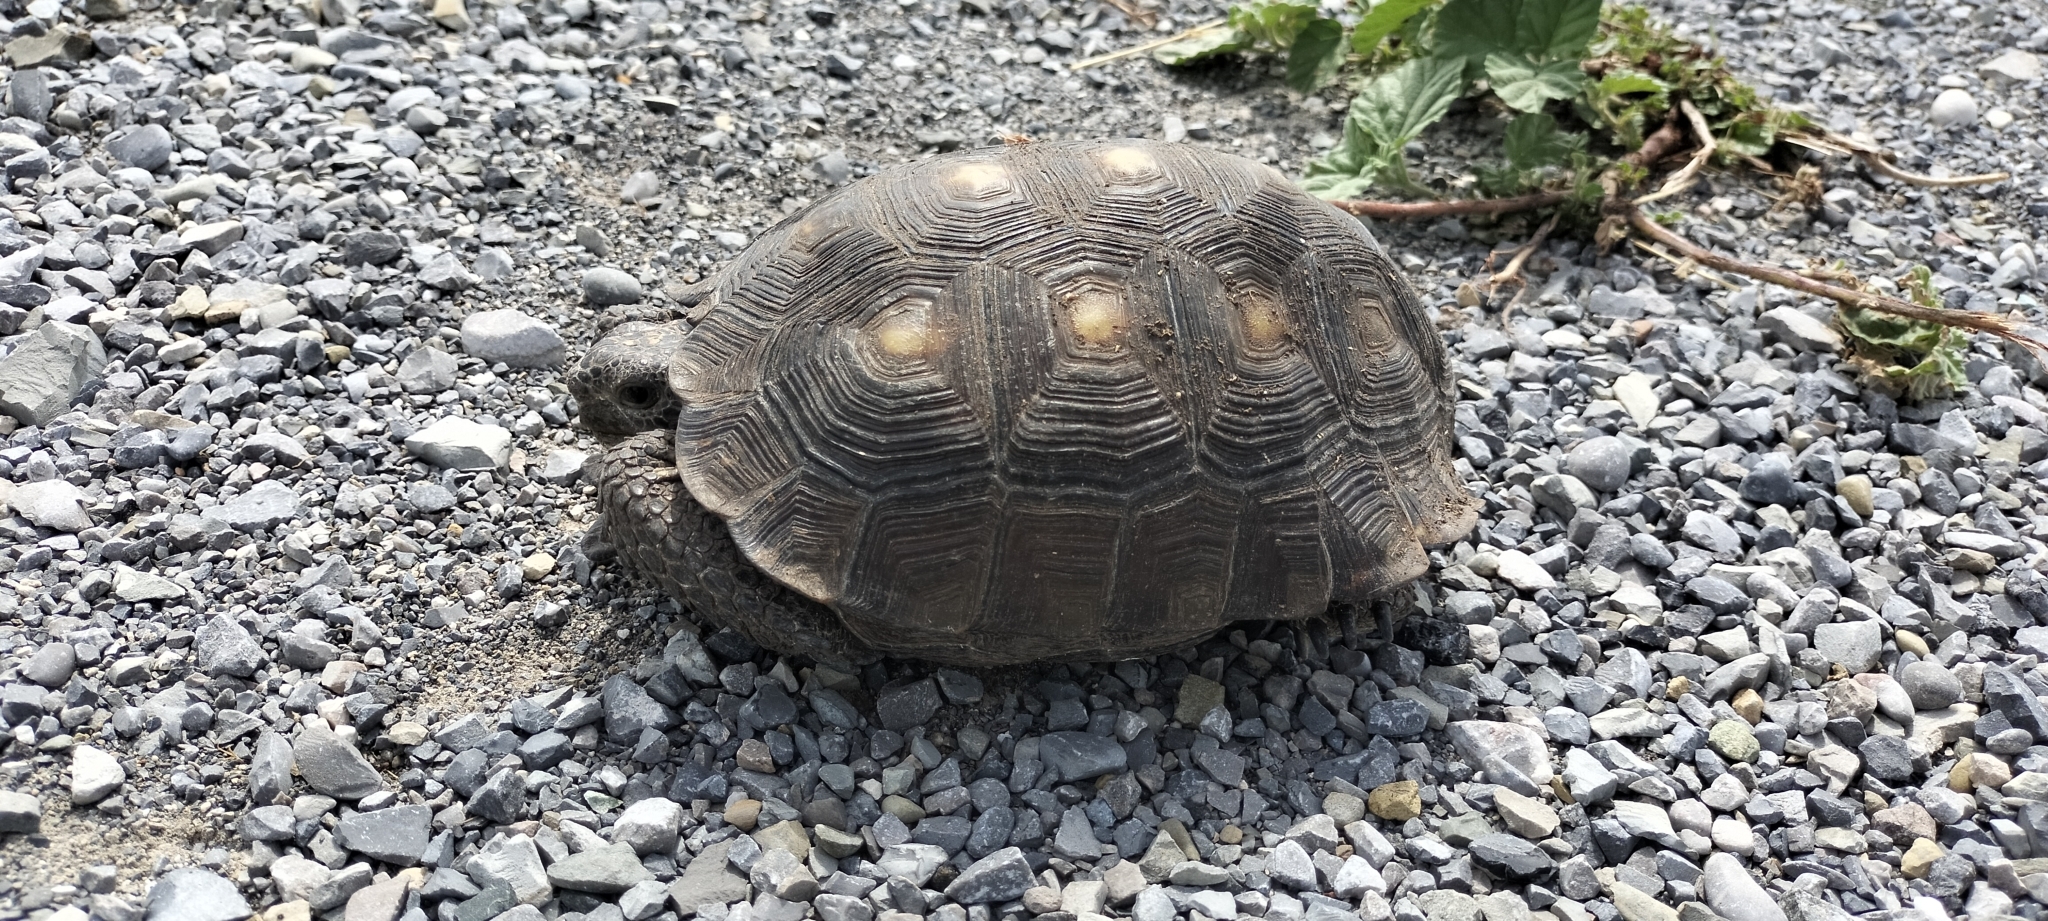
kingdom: Animalia
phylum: Chordata
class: Testudines
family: Testudinidae
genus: Gopherus
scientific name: Gopherus berlandieri
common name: Texas (gopher )tortoise
